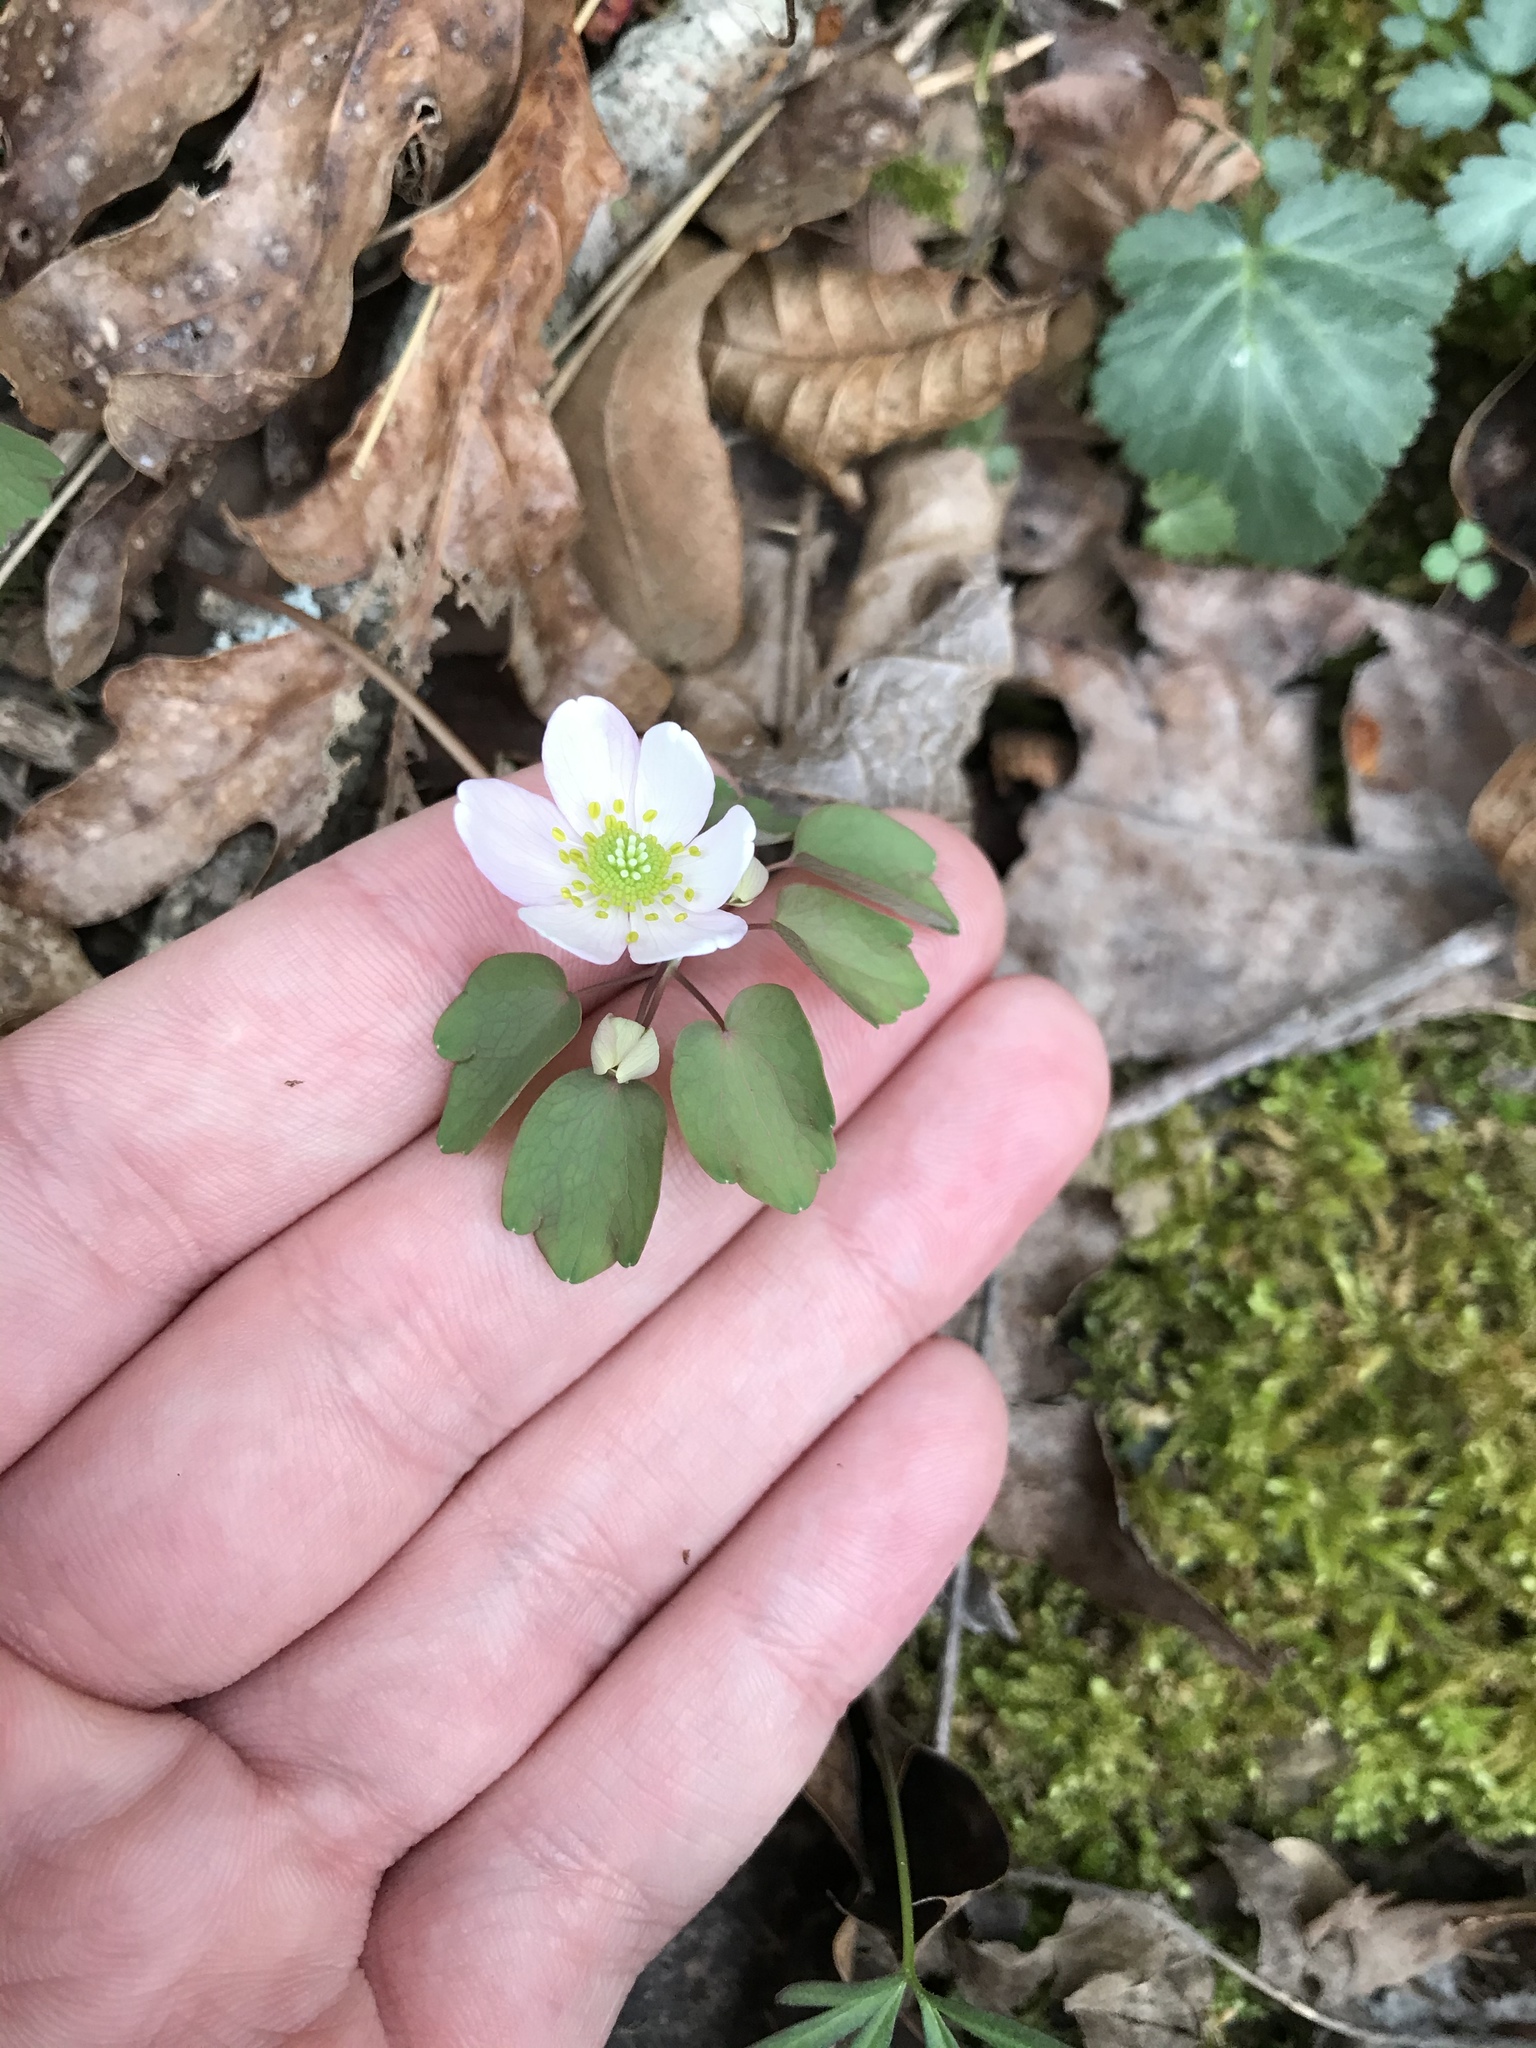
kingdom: Plantae
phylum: Tracheophyta
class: Magnoliopsida
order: Ranunculales
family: Ranunculaceae
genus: Thalictrum
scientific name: Thalictrum thalictroides
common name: Rue-anemone
